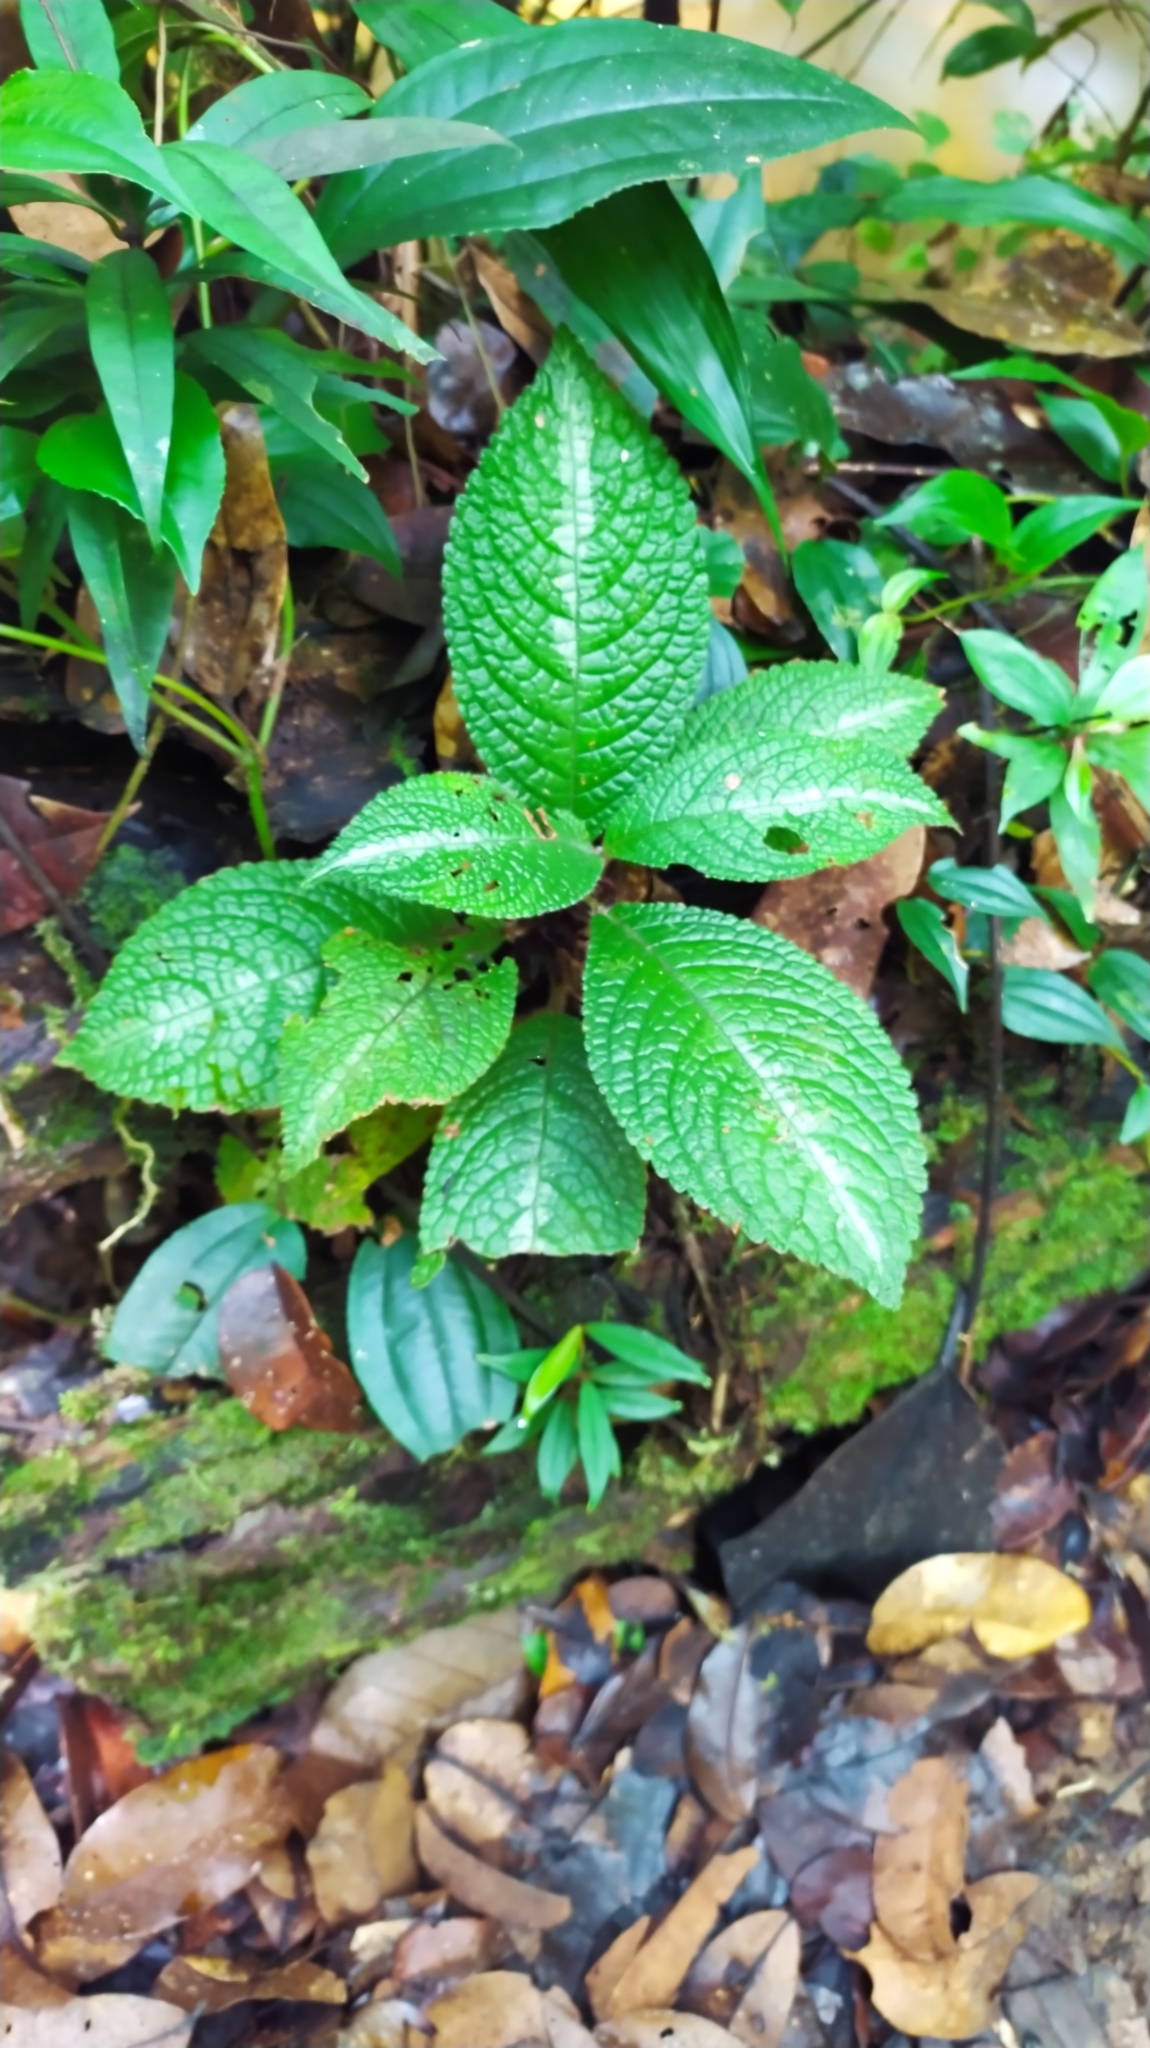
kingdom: Plantae
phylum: Tracheophyta
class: Magnoliopsida
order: Lamiales
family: Gesneriaceae
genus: Centrosolenia
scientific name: Centrosolenia picta
